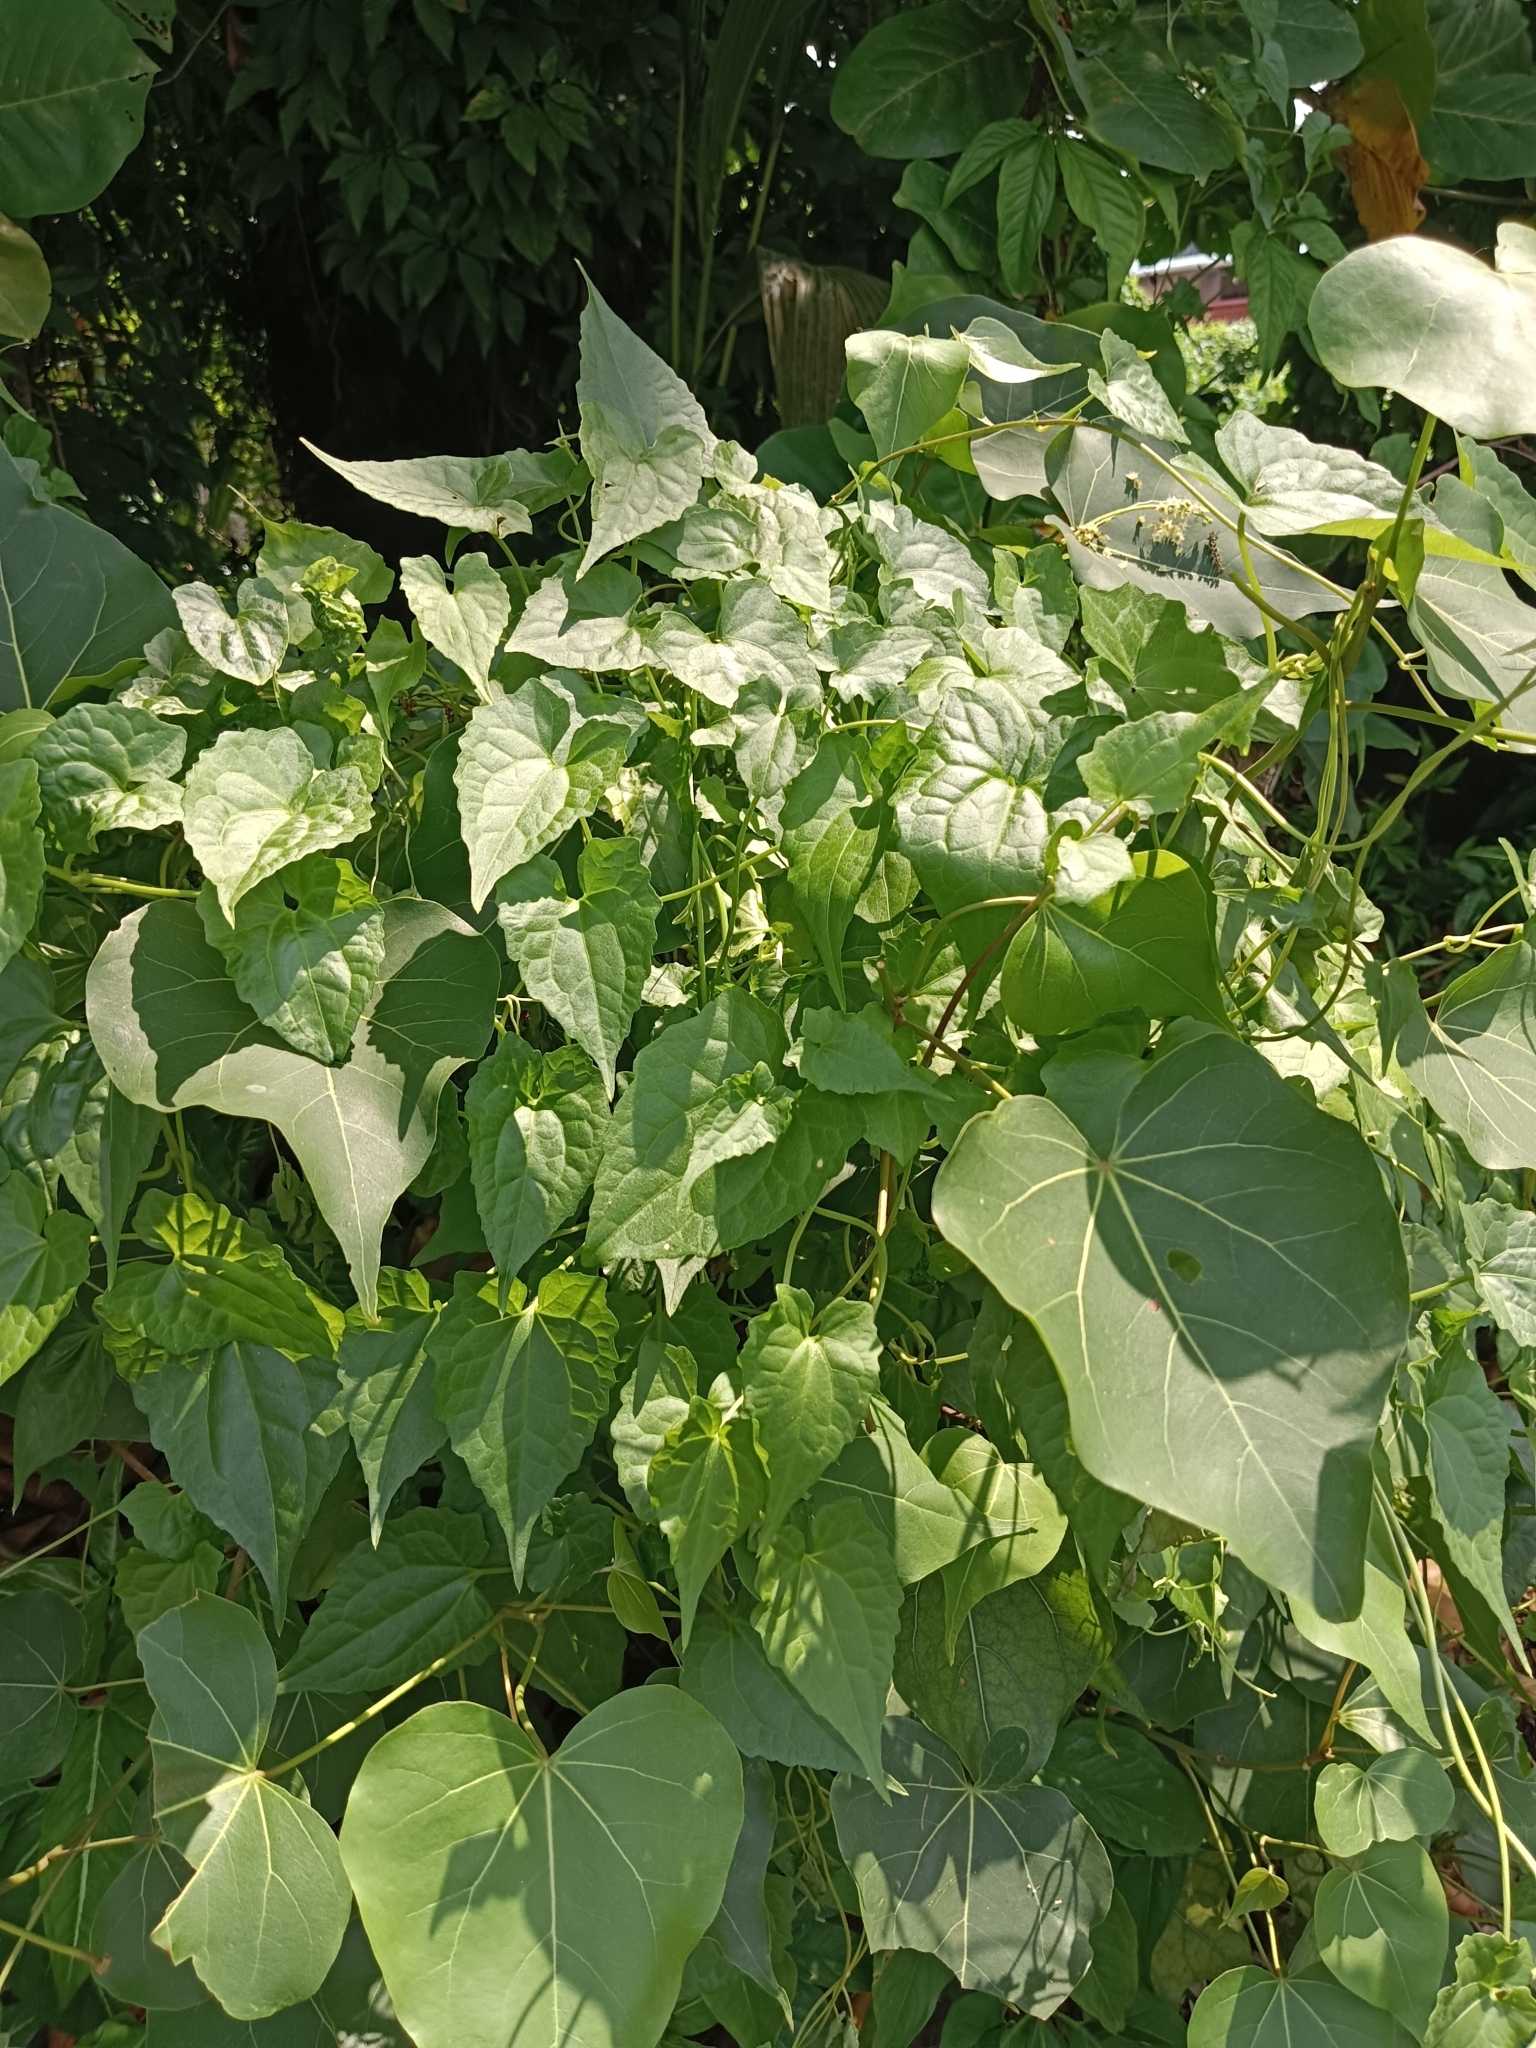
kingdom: Plantae
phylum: Tracheophyta
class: Magnoliopsida
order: Asterales
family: Asteraceae
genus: Mikania
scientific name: Mikania micrantha
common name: Mile-a-minute
